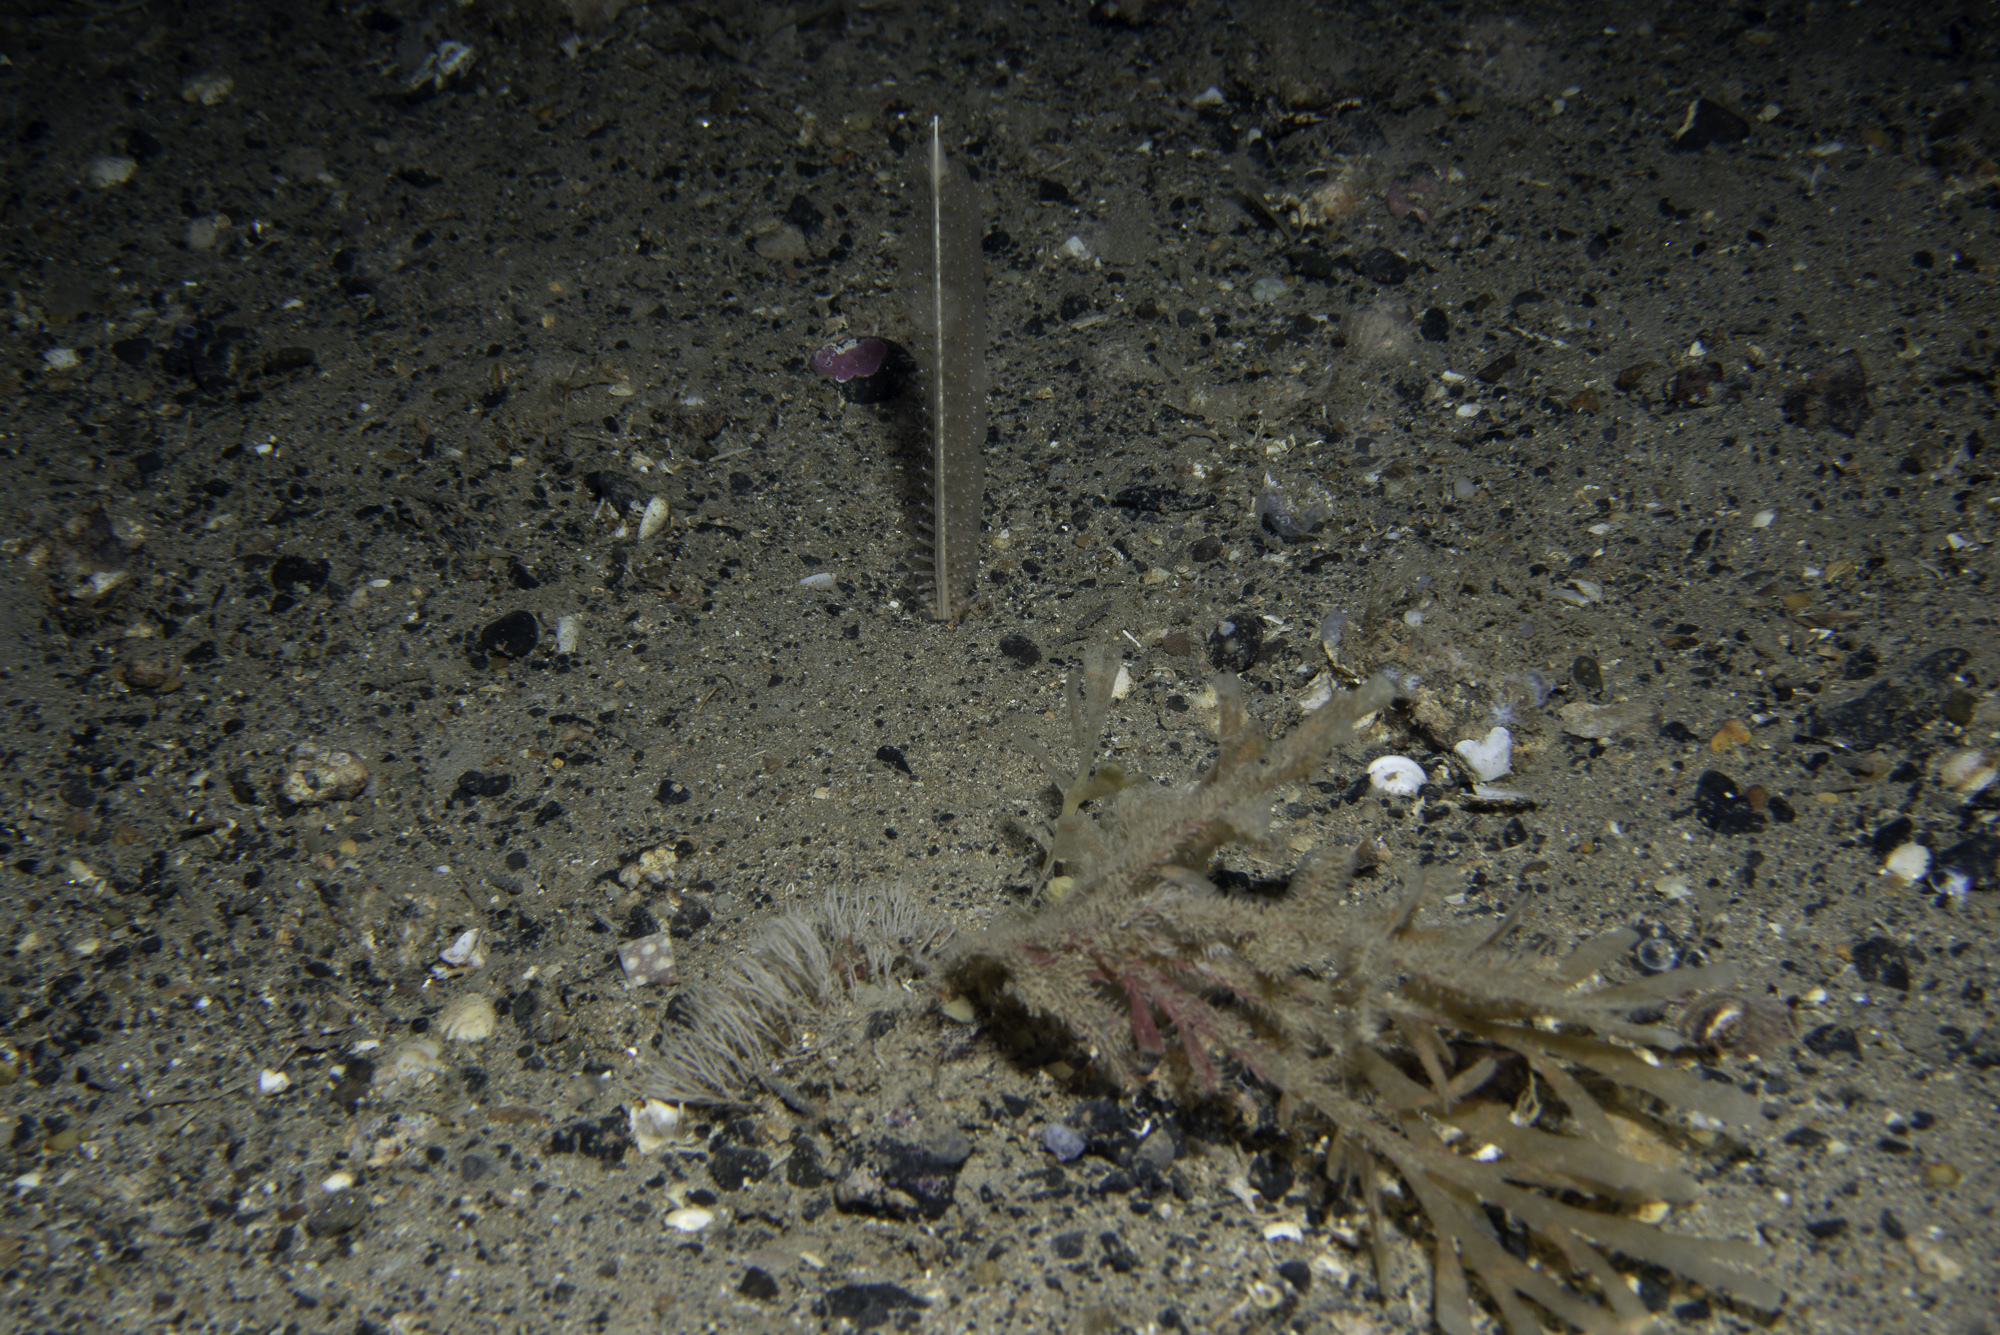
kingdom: Animalia
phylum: Cnidaria
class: Anthozoa
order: Scleralcyonacea
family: Virgulariidae
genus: Virgularia
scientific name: Virgularia mirabilis
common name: Slender sea pen
